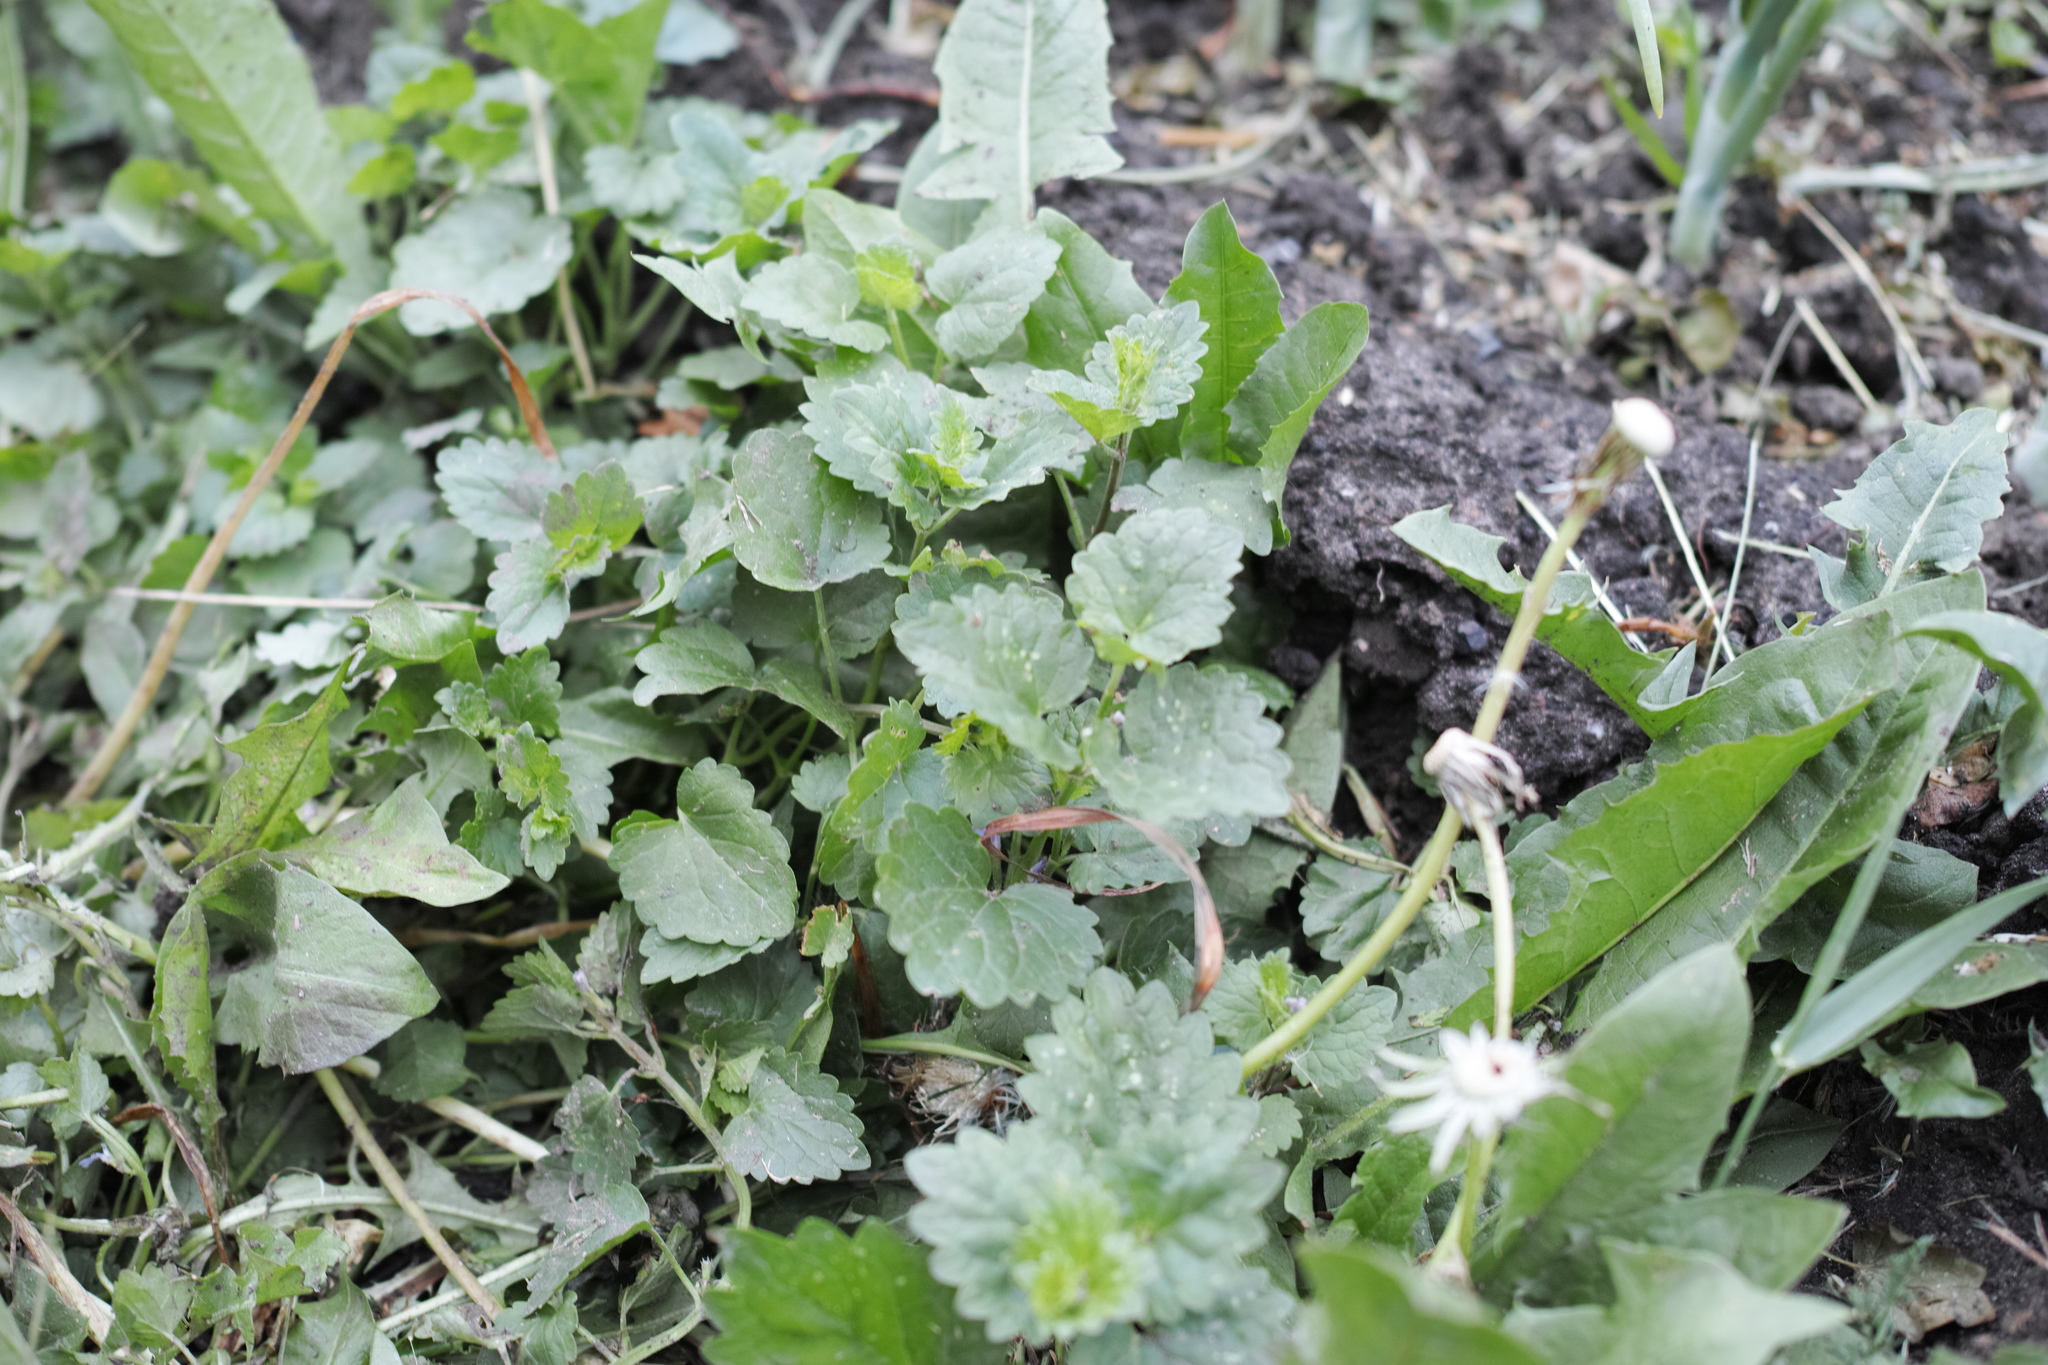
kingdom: Plantae
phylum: Tracheophyta
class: Magnoliopsida
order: Lamiales
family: Lamiaceae
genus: Glechoma
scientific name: Glechoma hederacea
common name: Ground ivy
